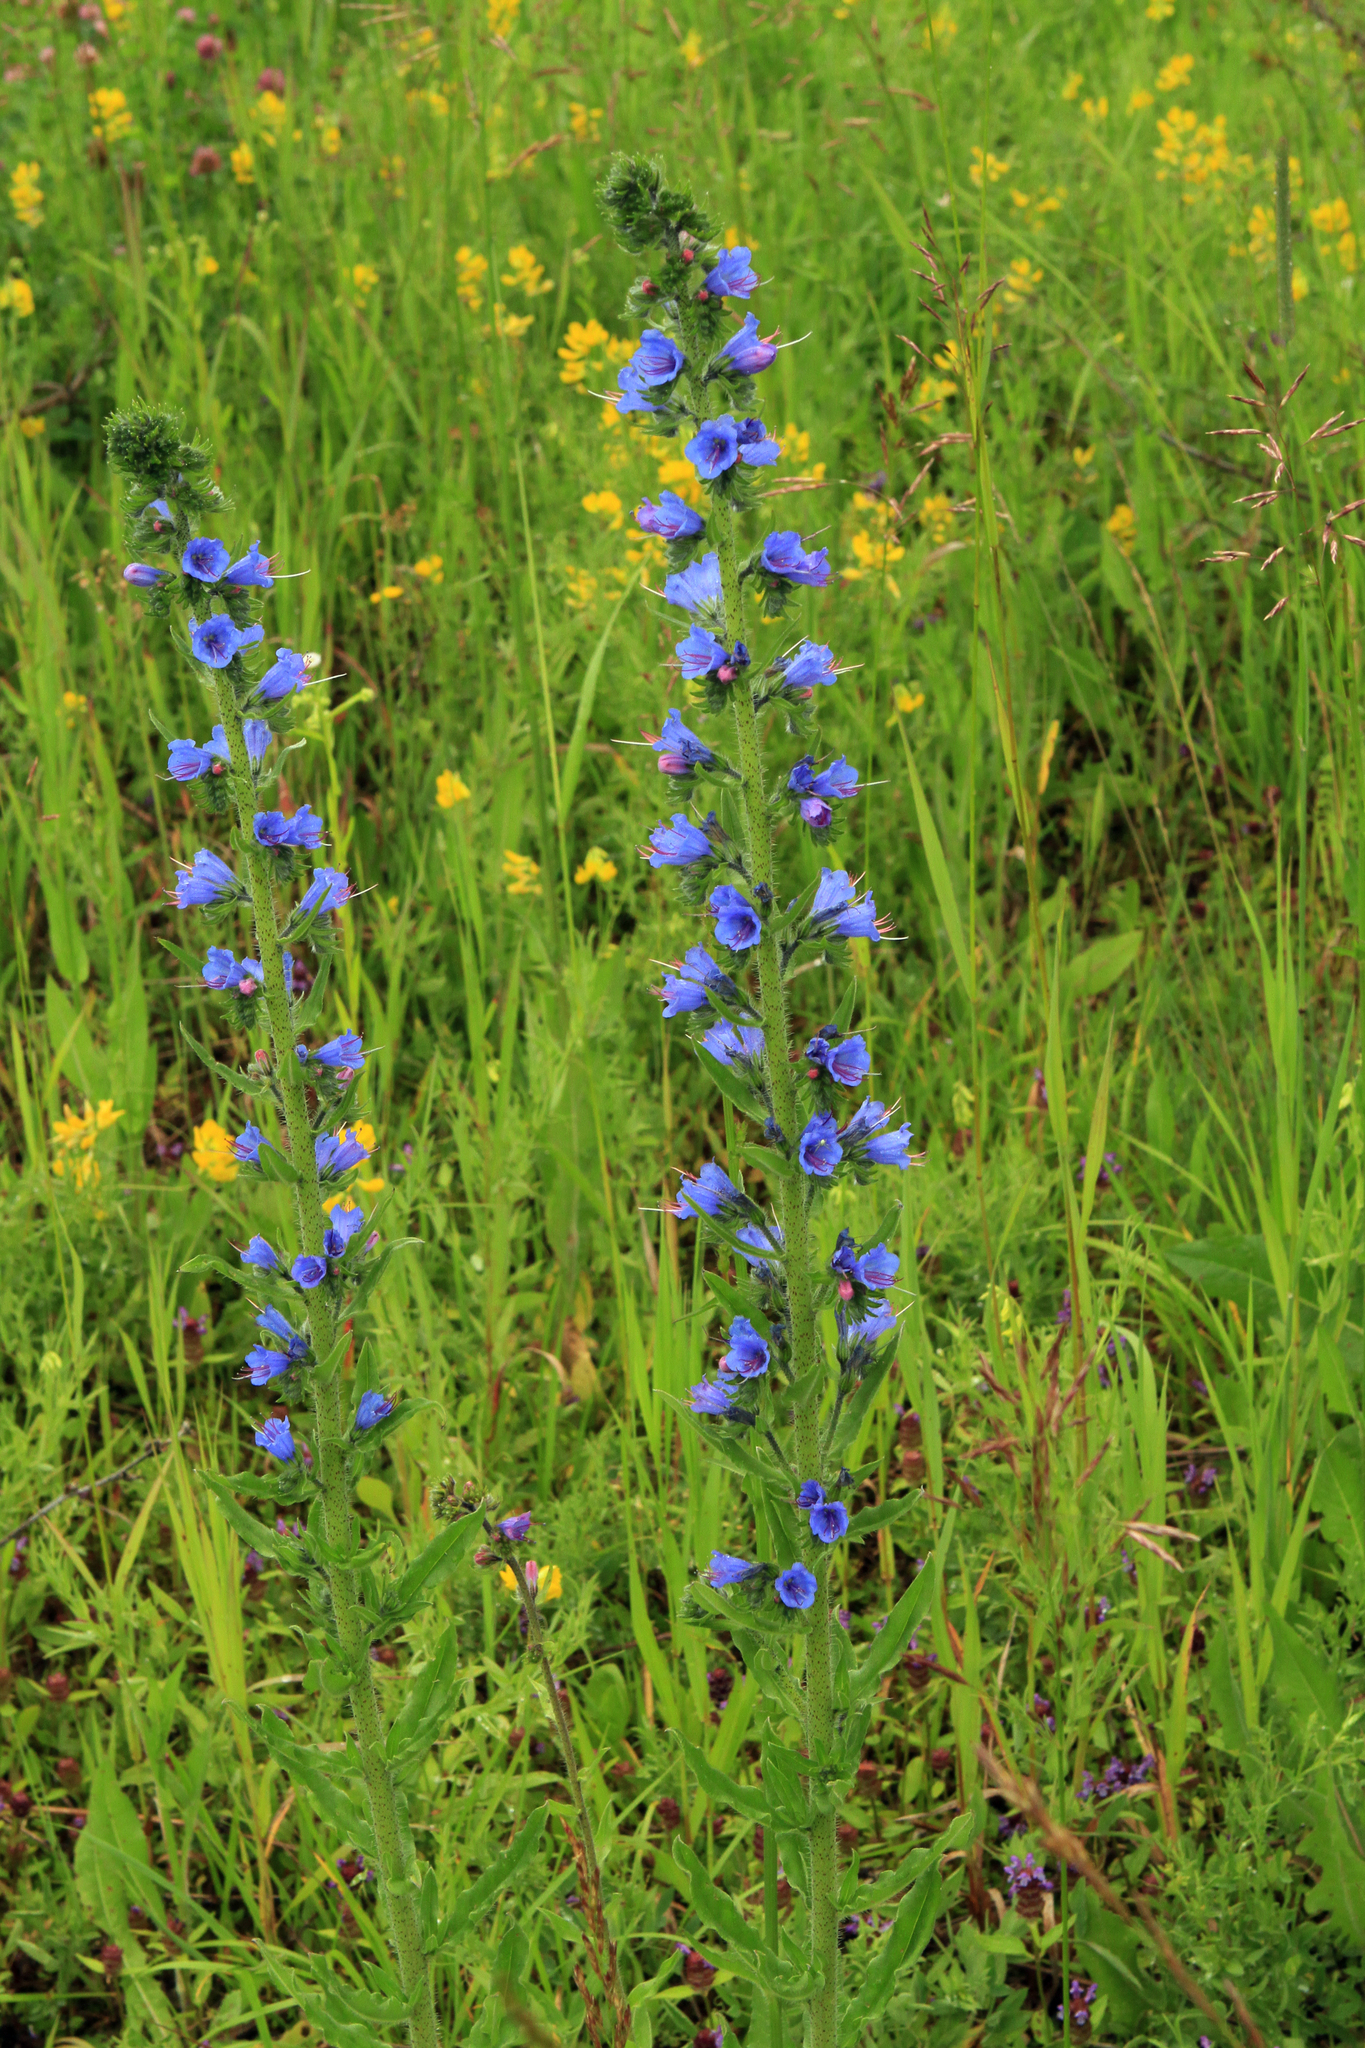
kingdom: Plantae
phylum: Tracheophyta
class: Magnoliopsida
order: Boraginales
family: Boraginaceae
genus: Echium
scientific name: Echium vulgare
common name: Common viper's bugloss
